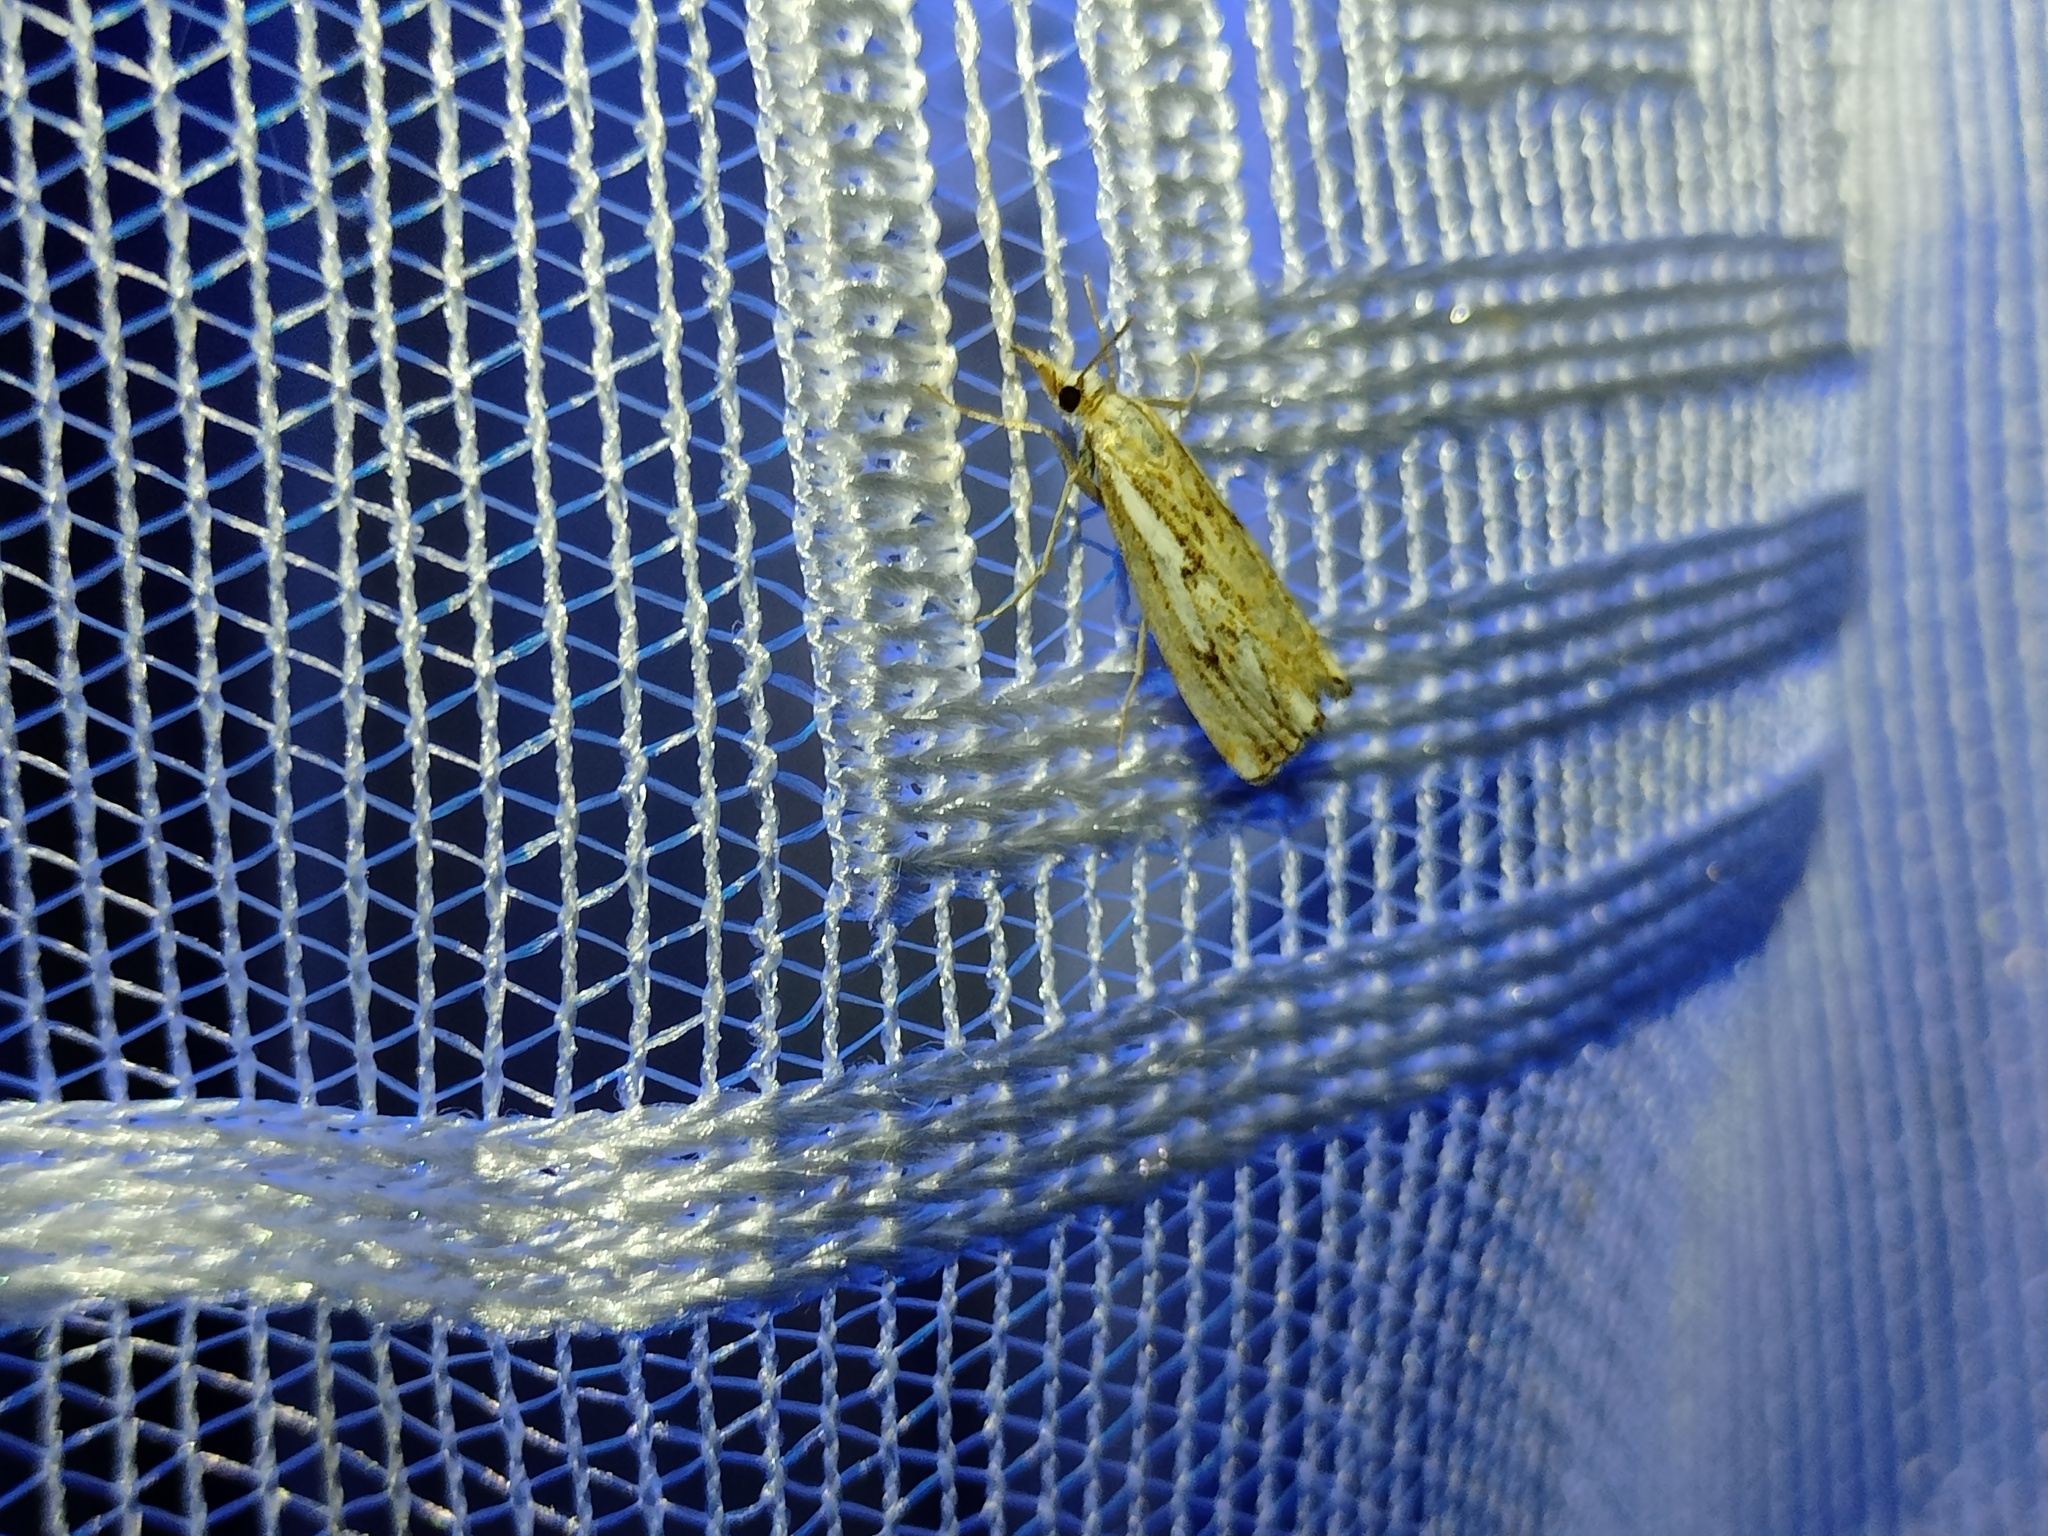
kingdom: Animalia
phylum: Arthropoda
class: Insecta
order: Lepidoptera
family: Crambidae
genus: Catoptria
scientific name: Catoptria falsella
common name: Chequered grass-veneer
